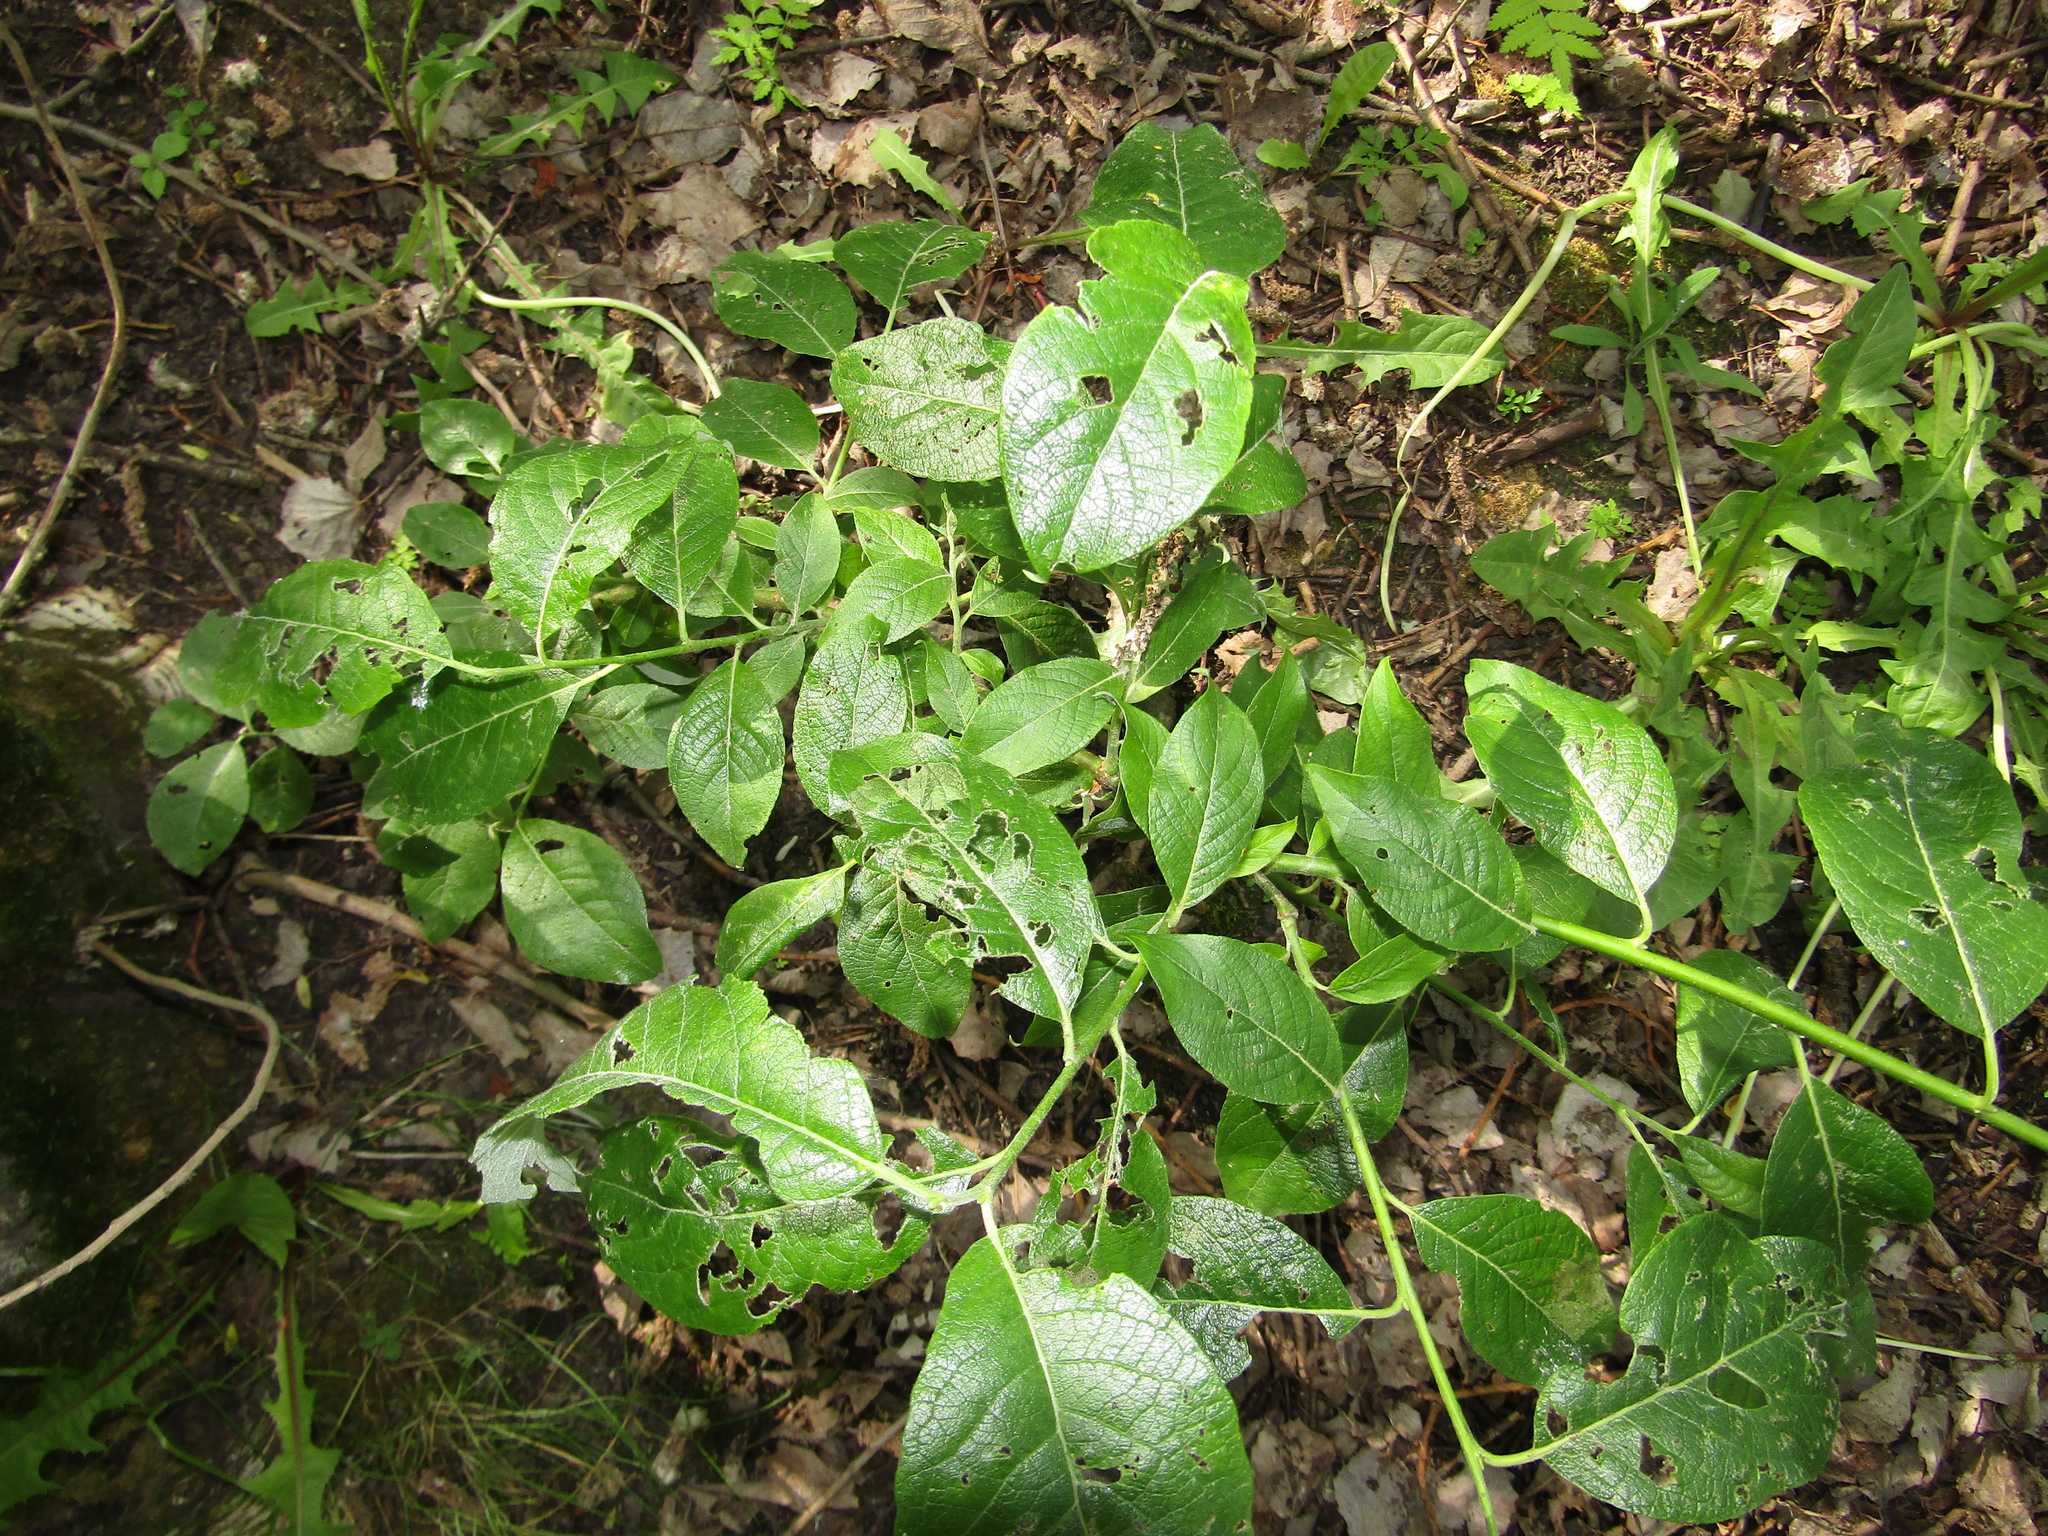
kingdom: Plantae
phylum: Tracheophyta
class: Magnoliopsida
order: Malpighiales
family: Salicaceae
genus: Salix
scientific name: Salix caprea
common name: Goat willow
